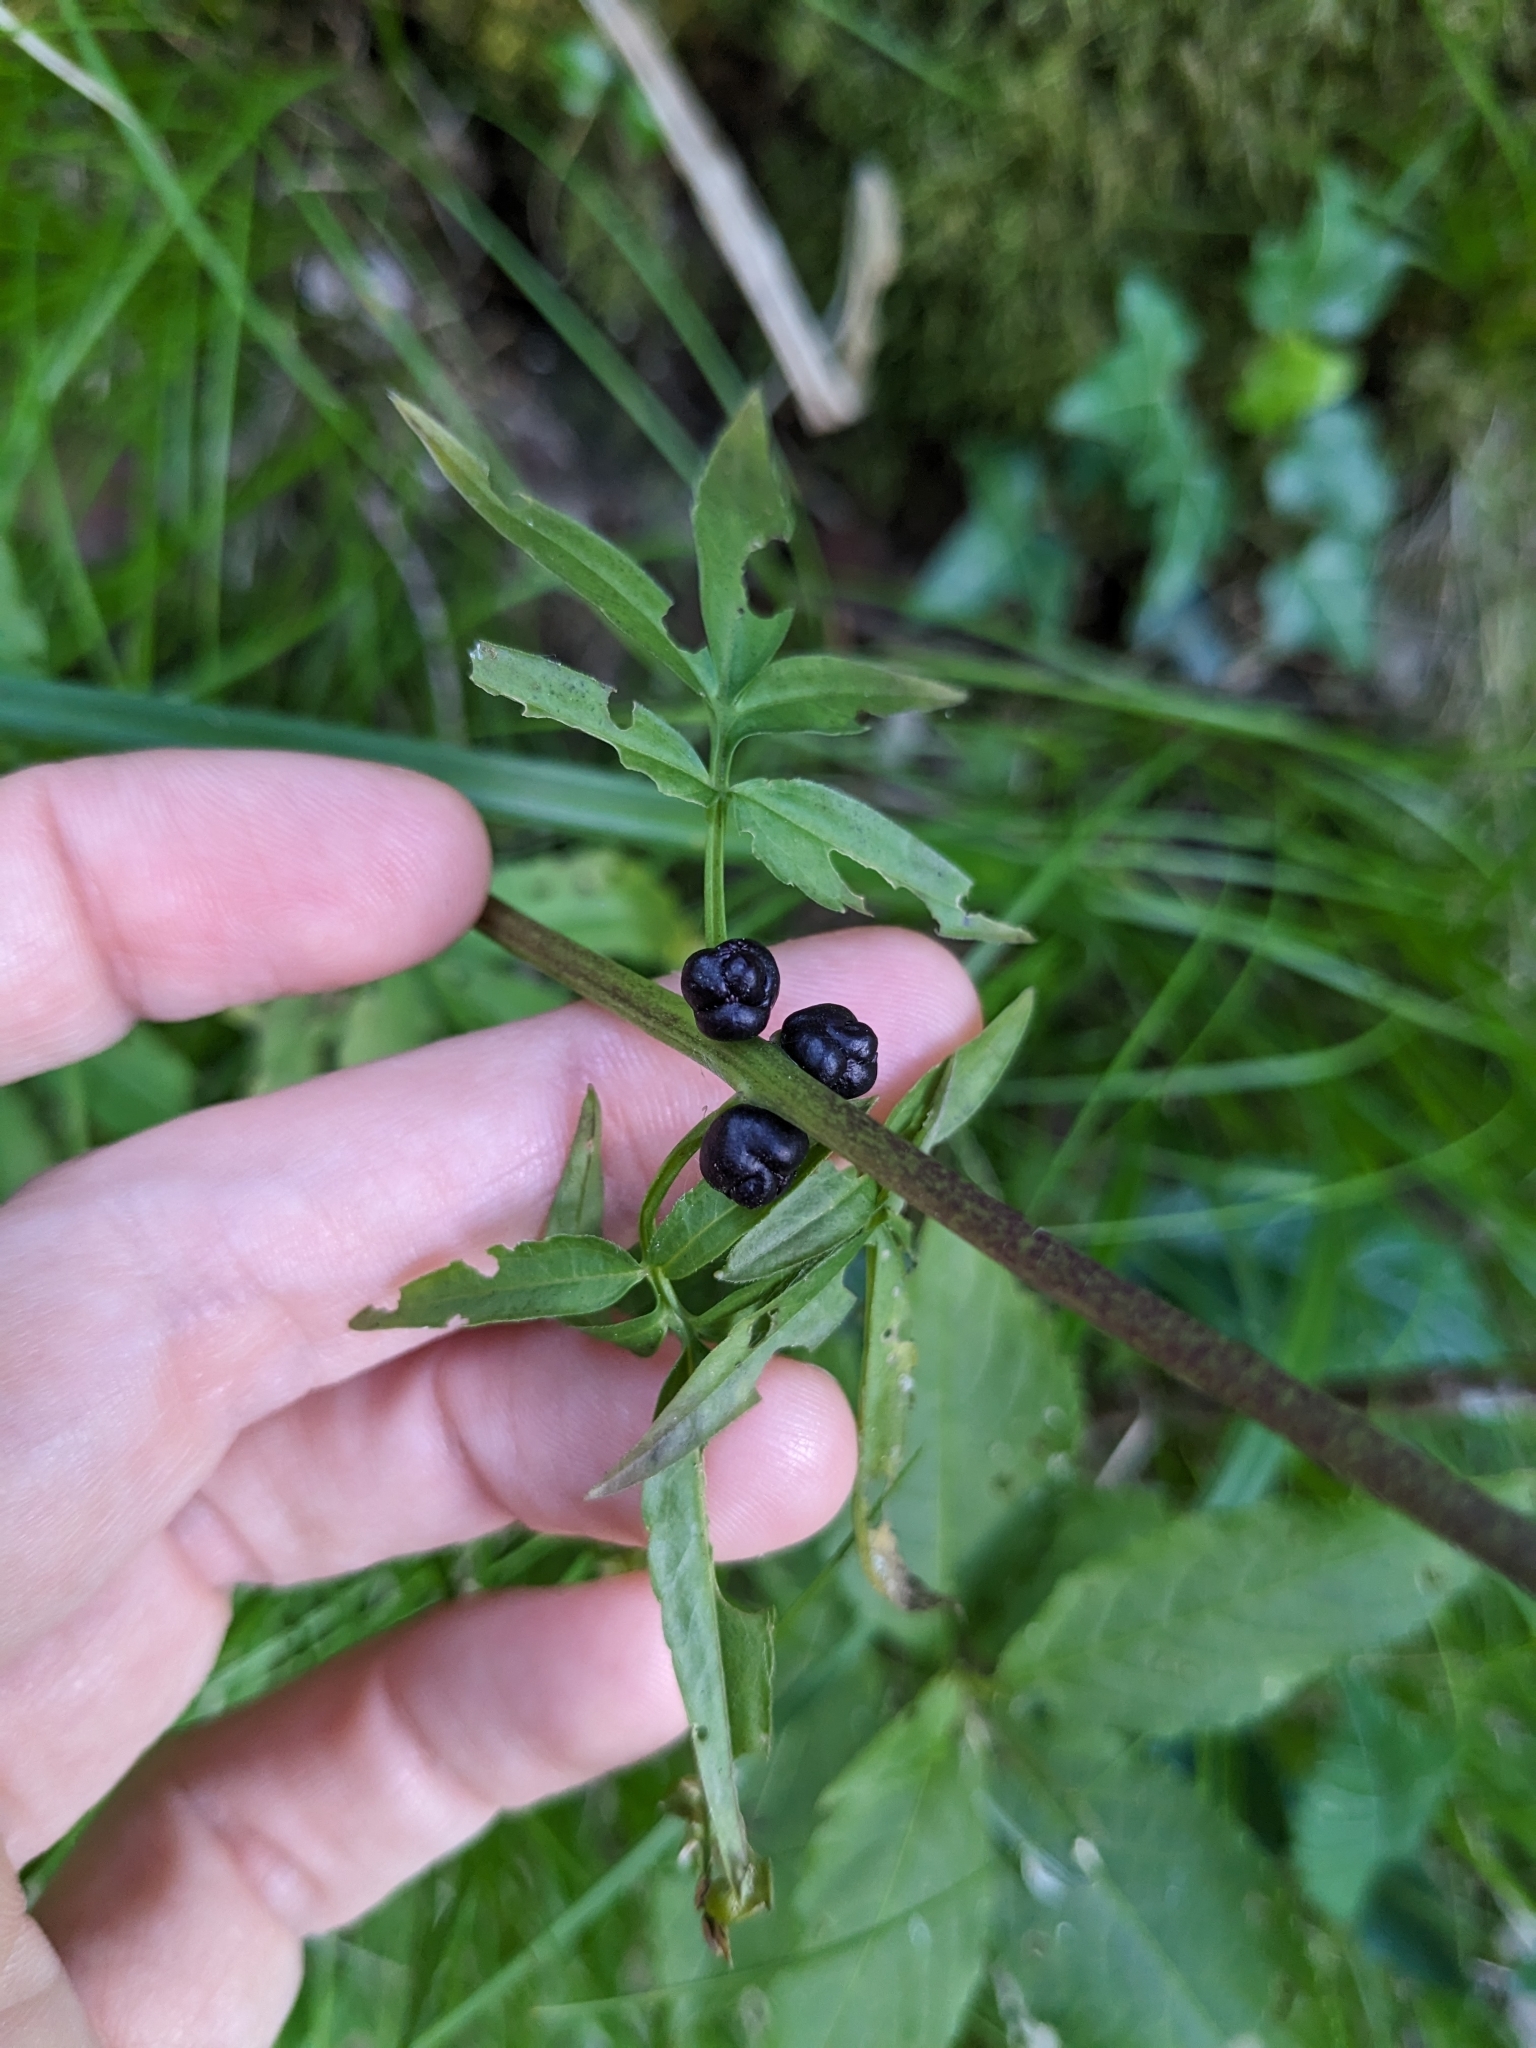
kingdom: Plantae
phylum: Tracheophyta
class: Magnoliopsida
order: Brassicales
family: Brassicaceae
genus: Cardamine
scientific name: Cardamine bulbifera
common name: Coralroot bittercress
